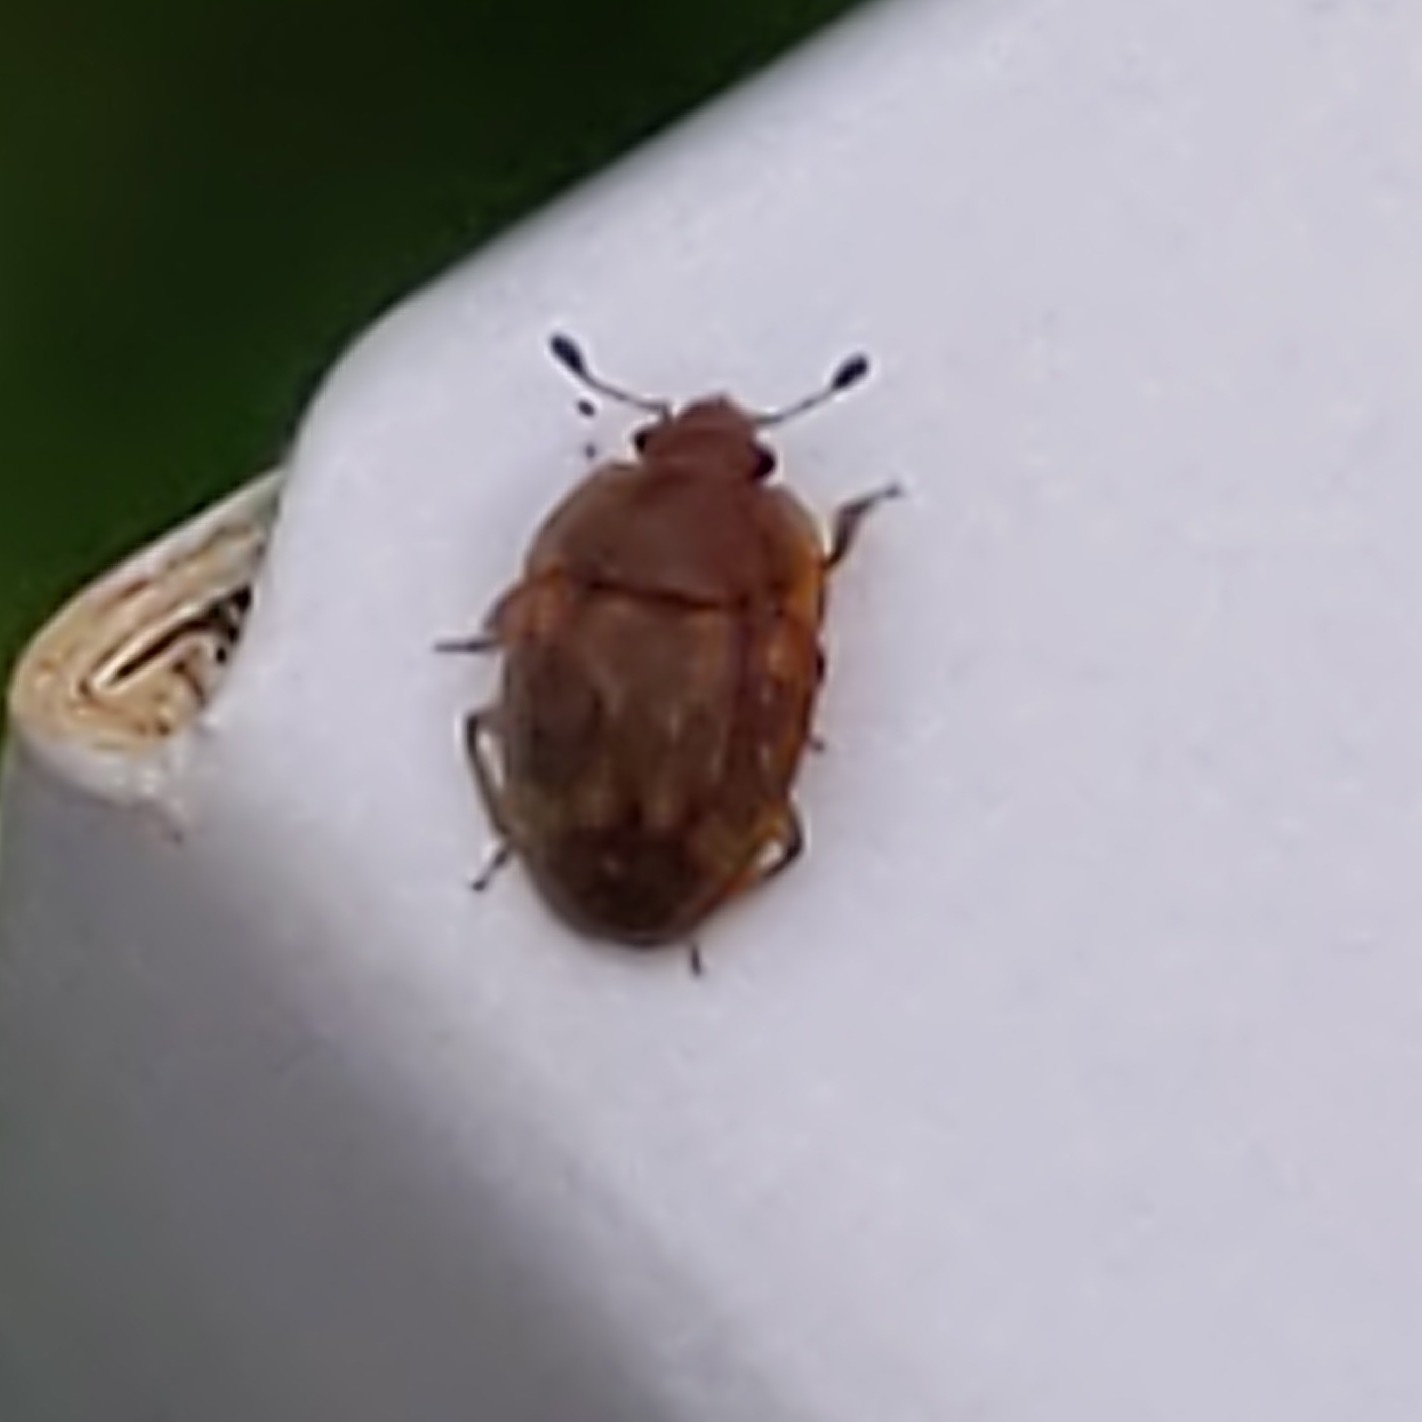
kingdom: Animalia
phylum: Arthropoda
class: Insecta
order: Coleoptera
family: Nitidulidae
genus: Stelidota
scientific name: Stelidota geminata
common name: Strawberry sap beetle
